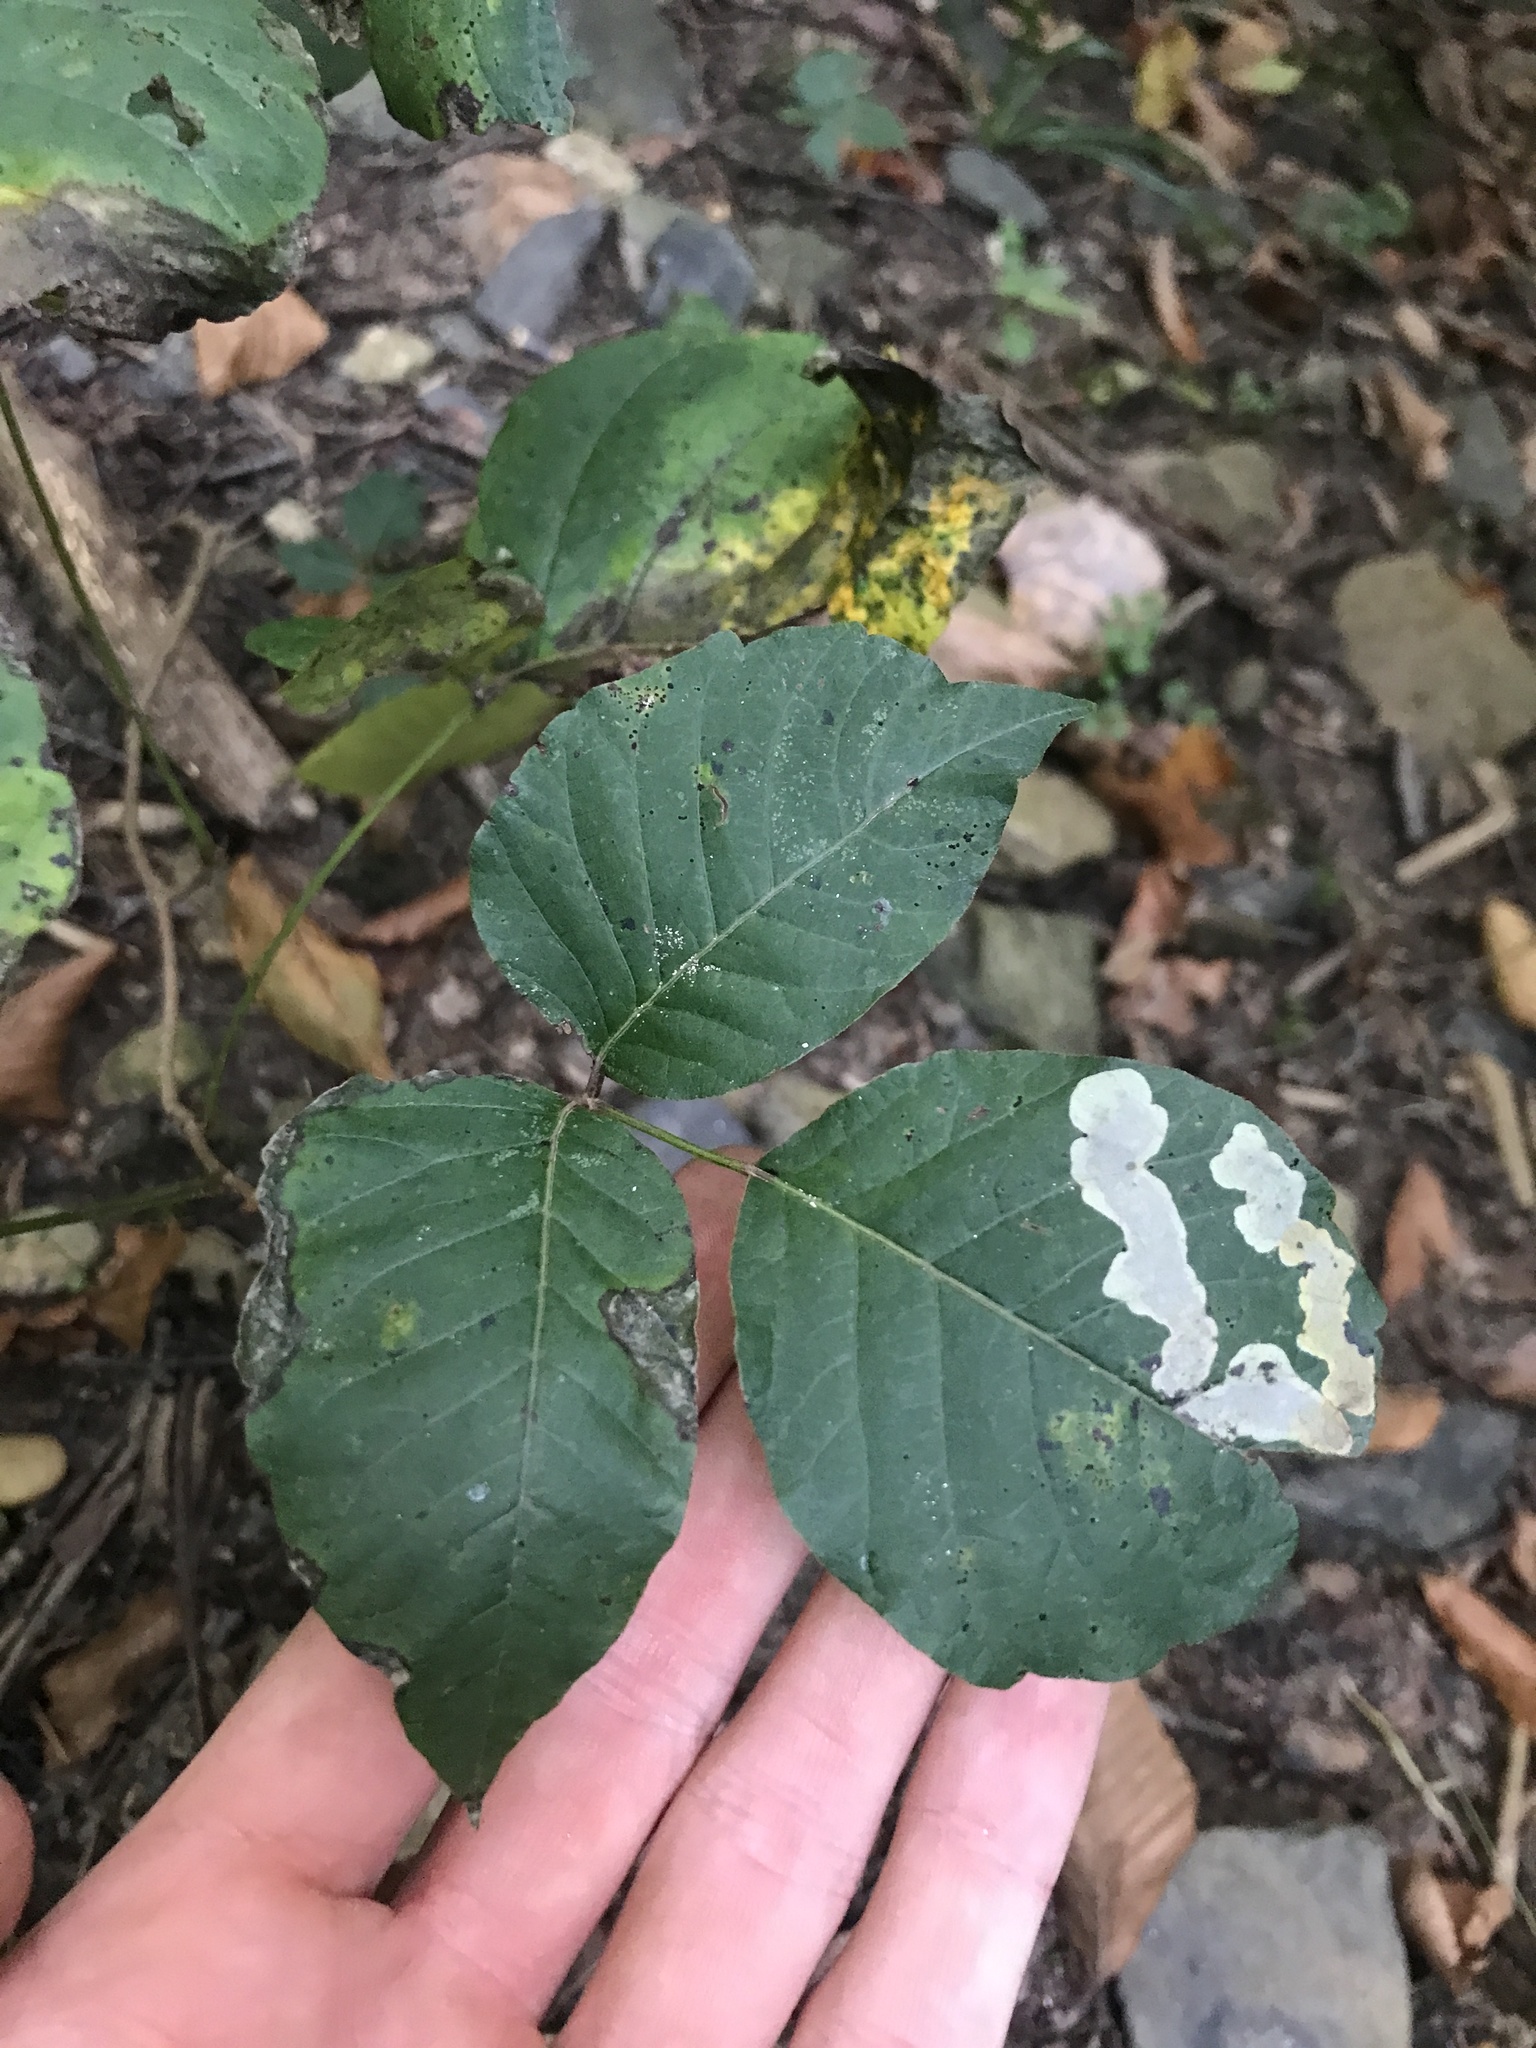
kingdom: Animalia
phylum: Arthropoda
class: Insecta
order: Lepidoptera
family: Gracillariidae
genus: Cameraria
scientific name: Cameraria guttifinitella
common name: Poison ivy leaf-miner moth
